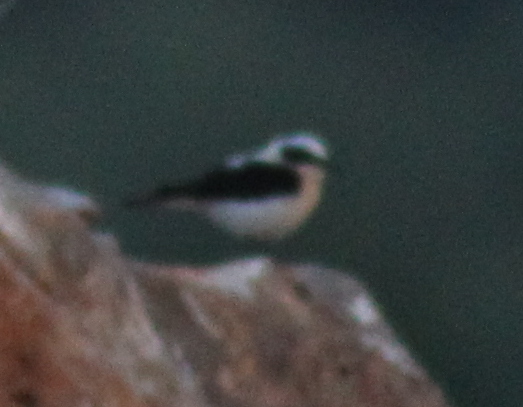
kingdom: Animalia
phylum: Chordata
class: Aves
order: Passeriformes
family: Muscicapidae
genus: Oenanthe
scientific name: Oenanthe hispanica
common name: Black-eared wheatear
